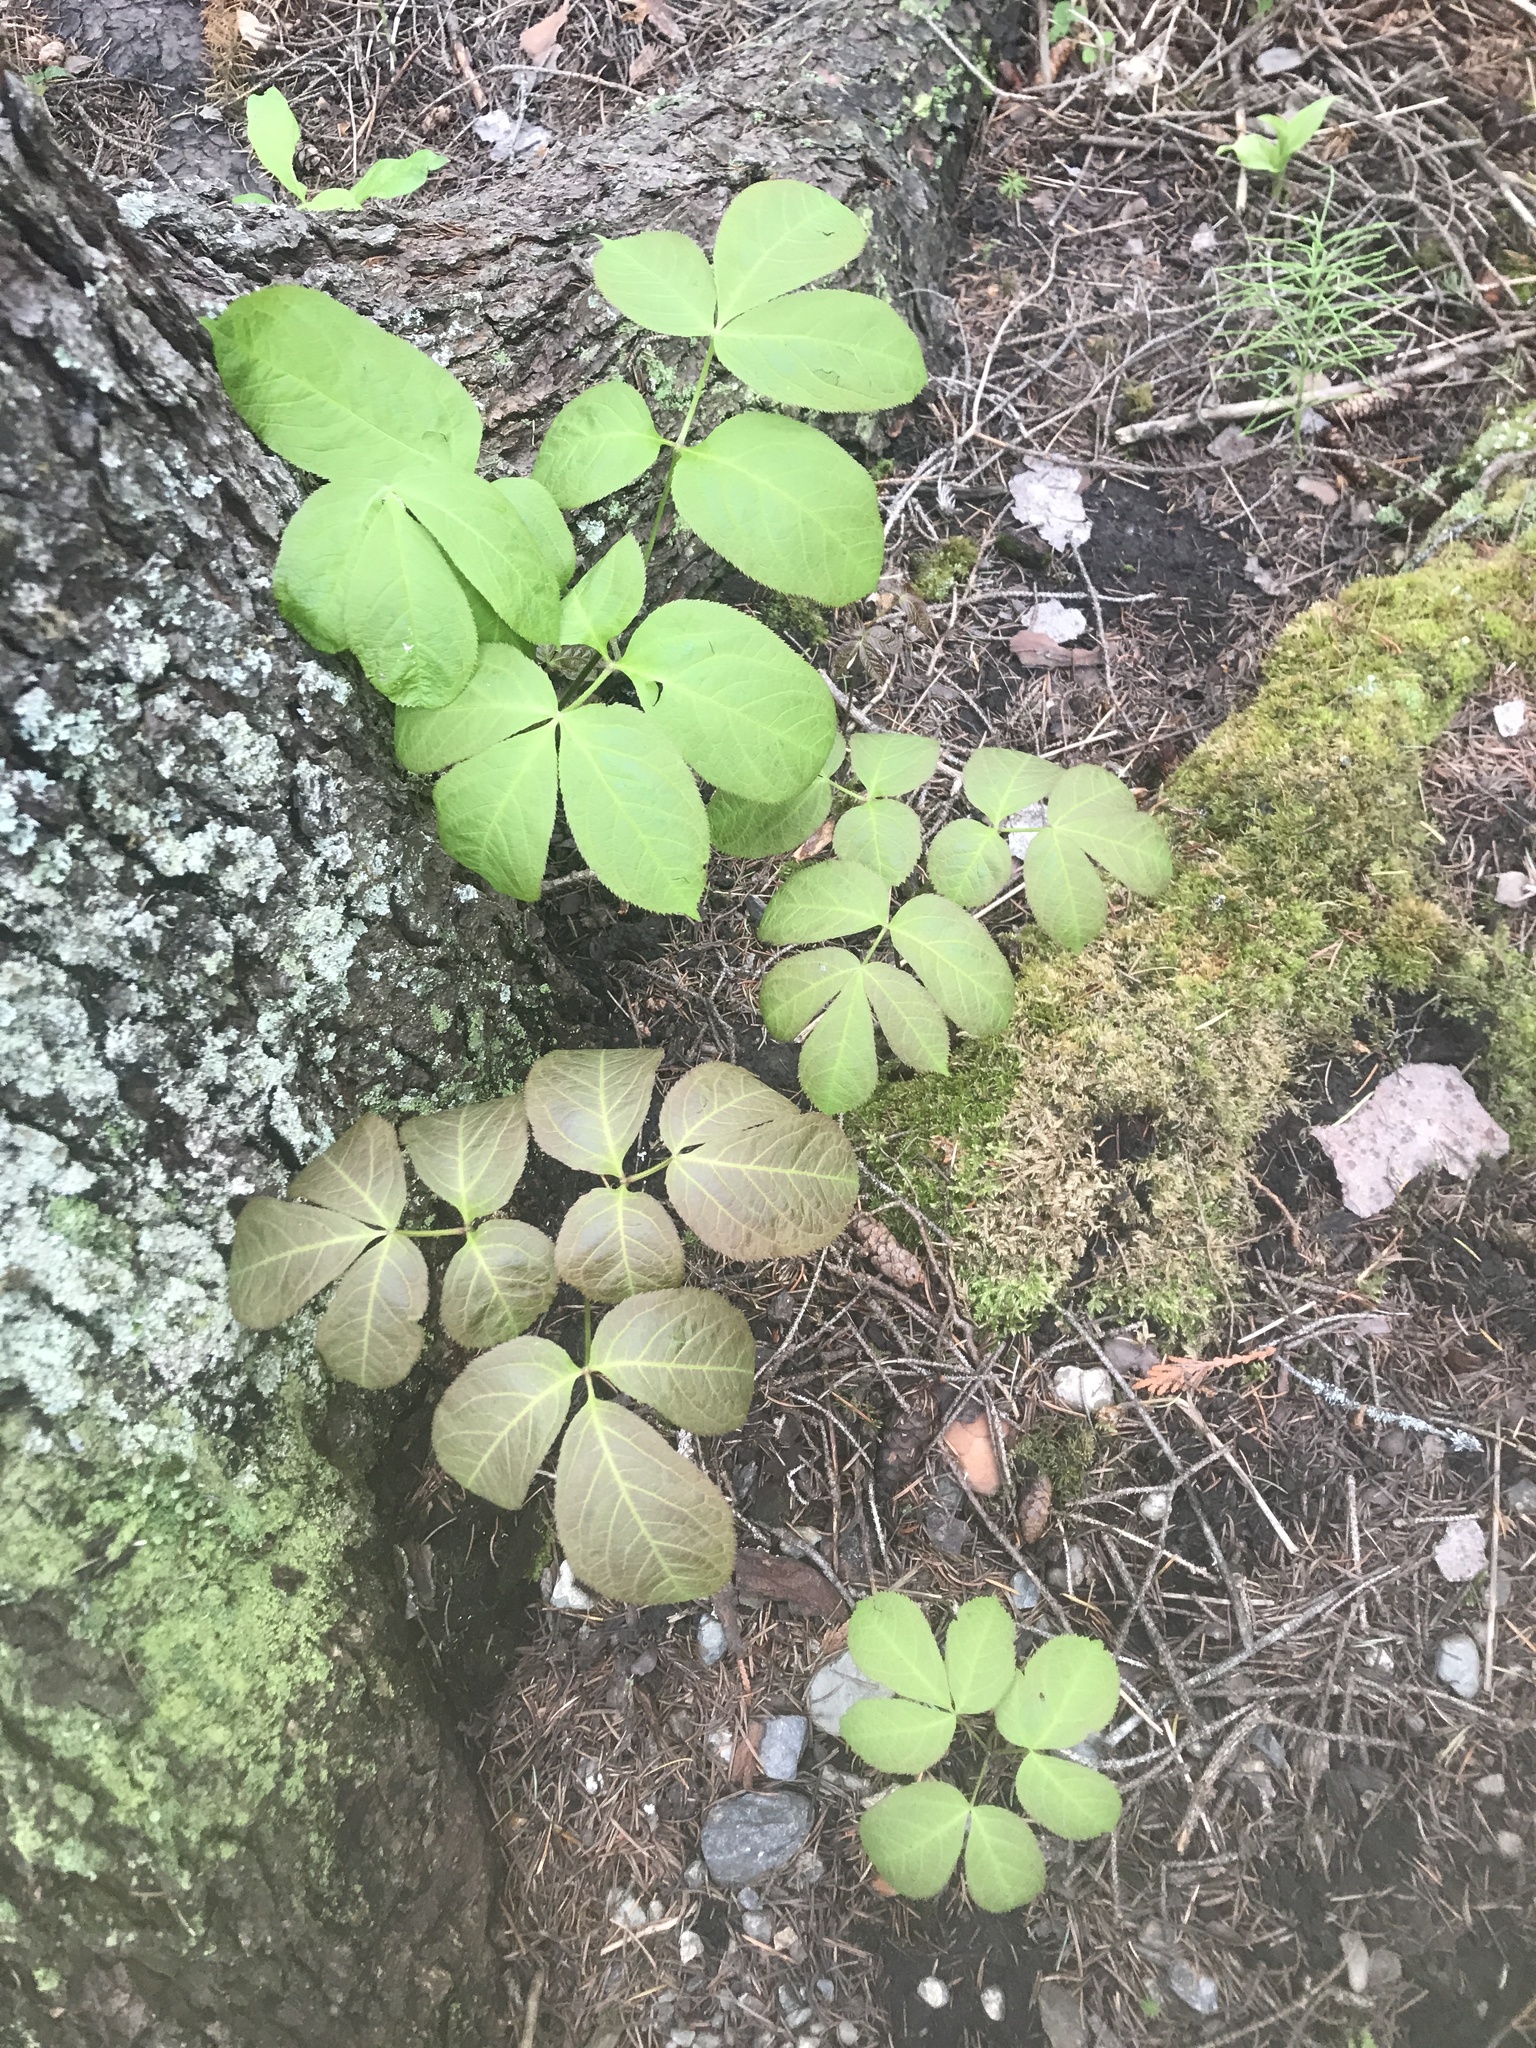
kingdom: Plantae
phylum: Tracheophyta
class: Magnoliopsida
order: Apiales
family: Araliaceae
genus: Aralia
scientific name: Aralia nudicaulis
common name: Wild sarsaparilla
